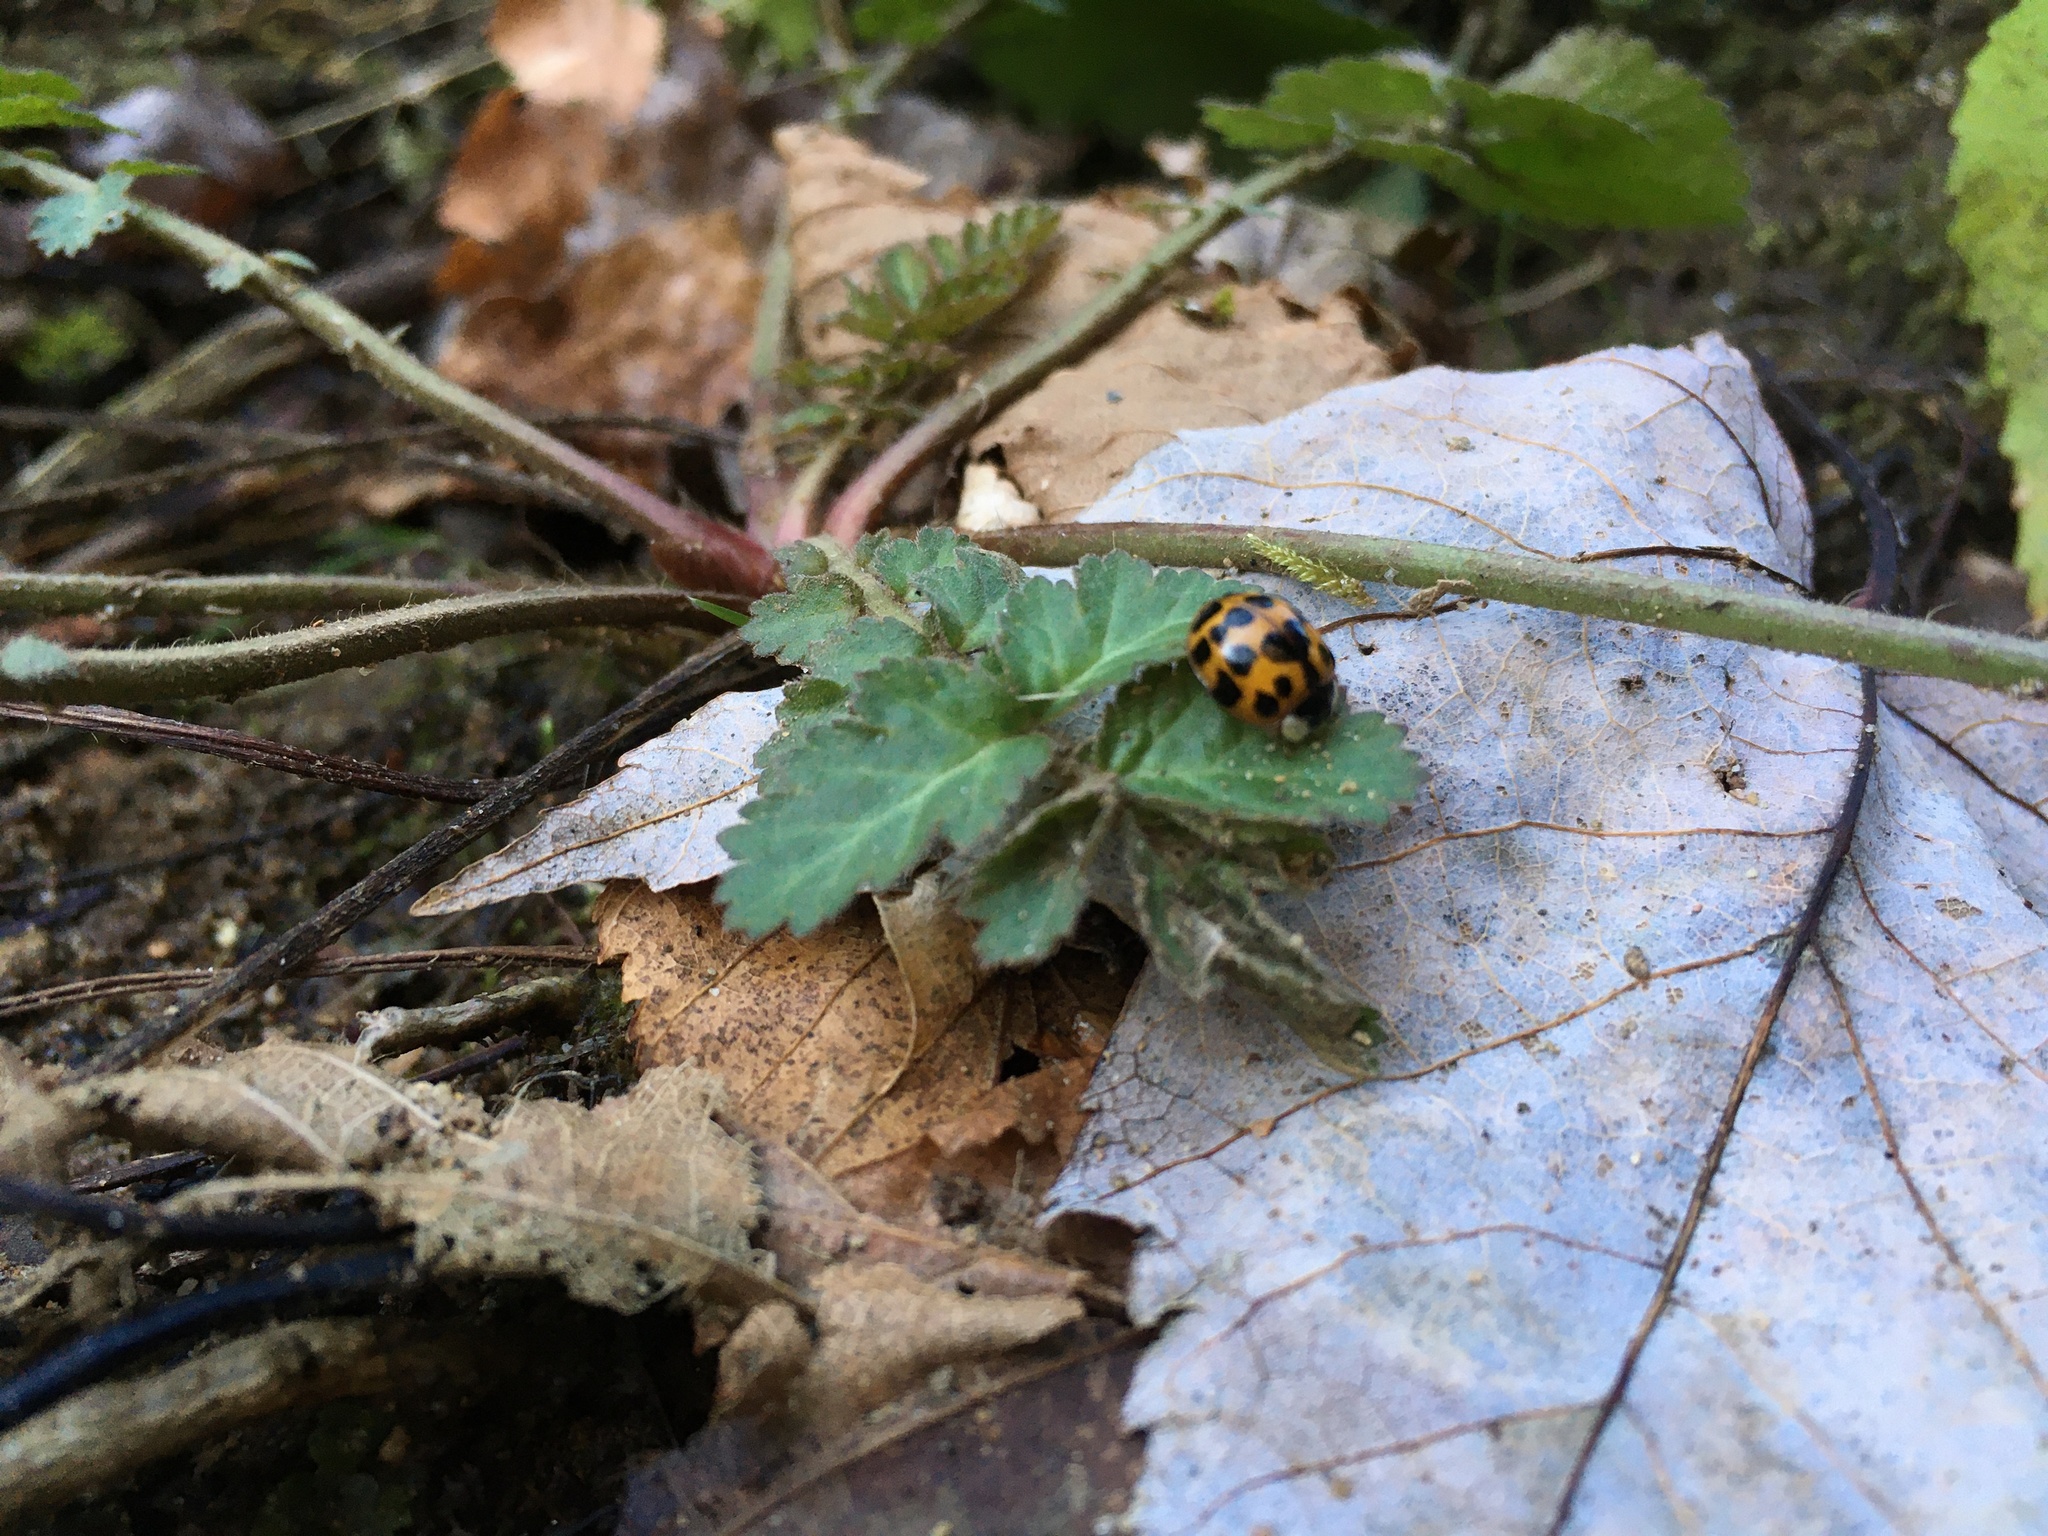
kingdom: Animalia
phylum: Arthropoda
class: Insecta
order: Coleoptera
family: Coccinellidae
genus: Harmonia
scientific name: Harmonia axyridis
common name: Harlequin ladybird
